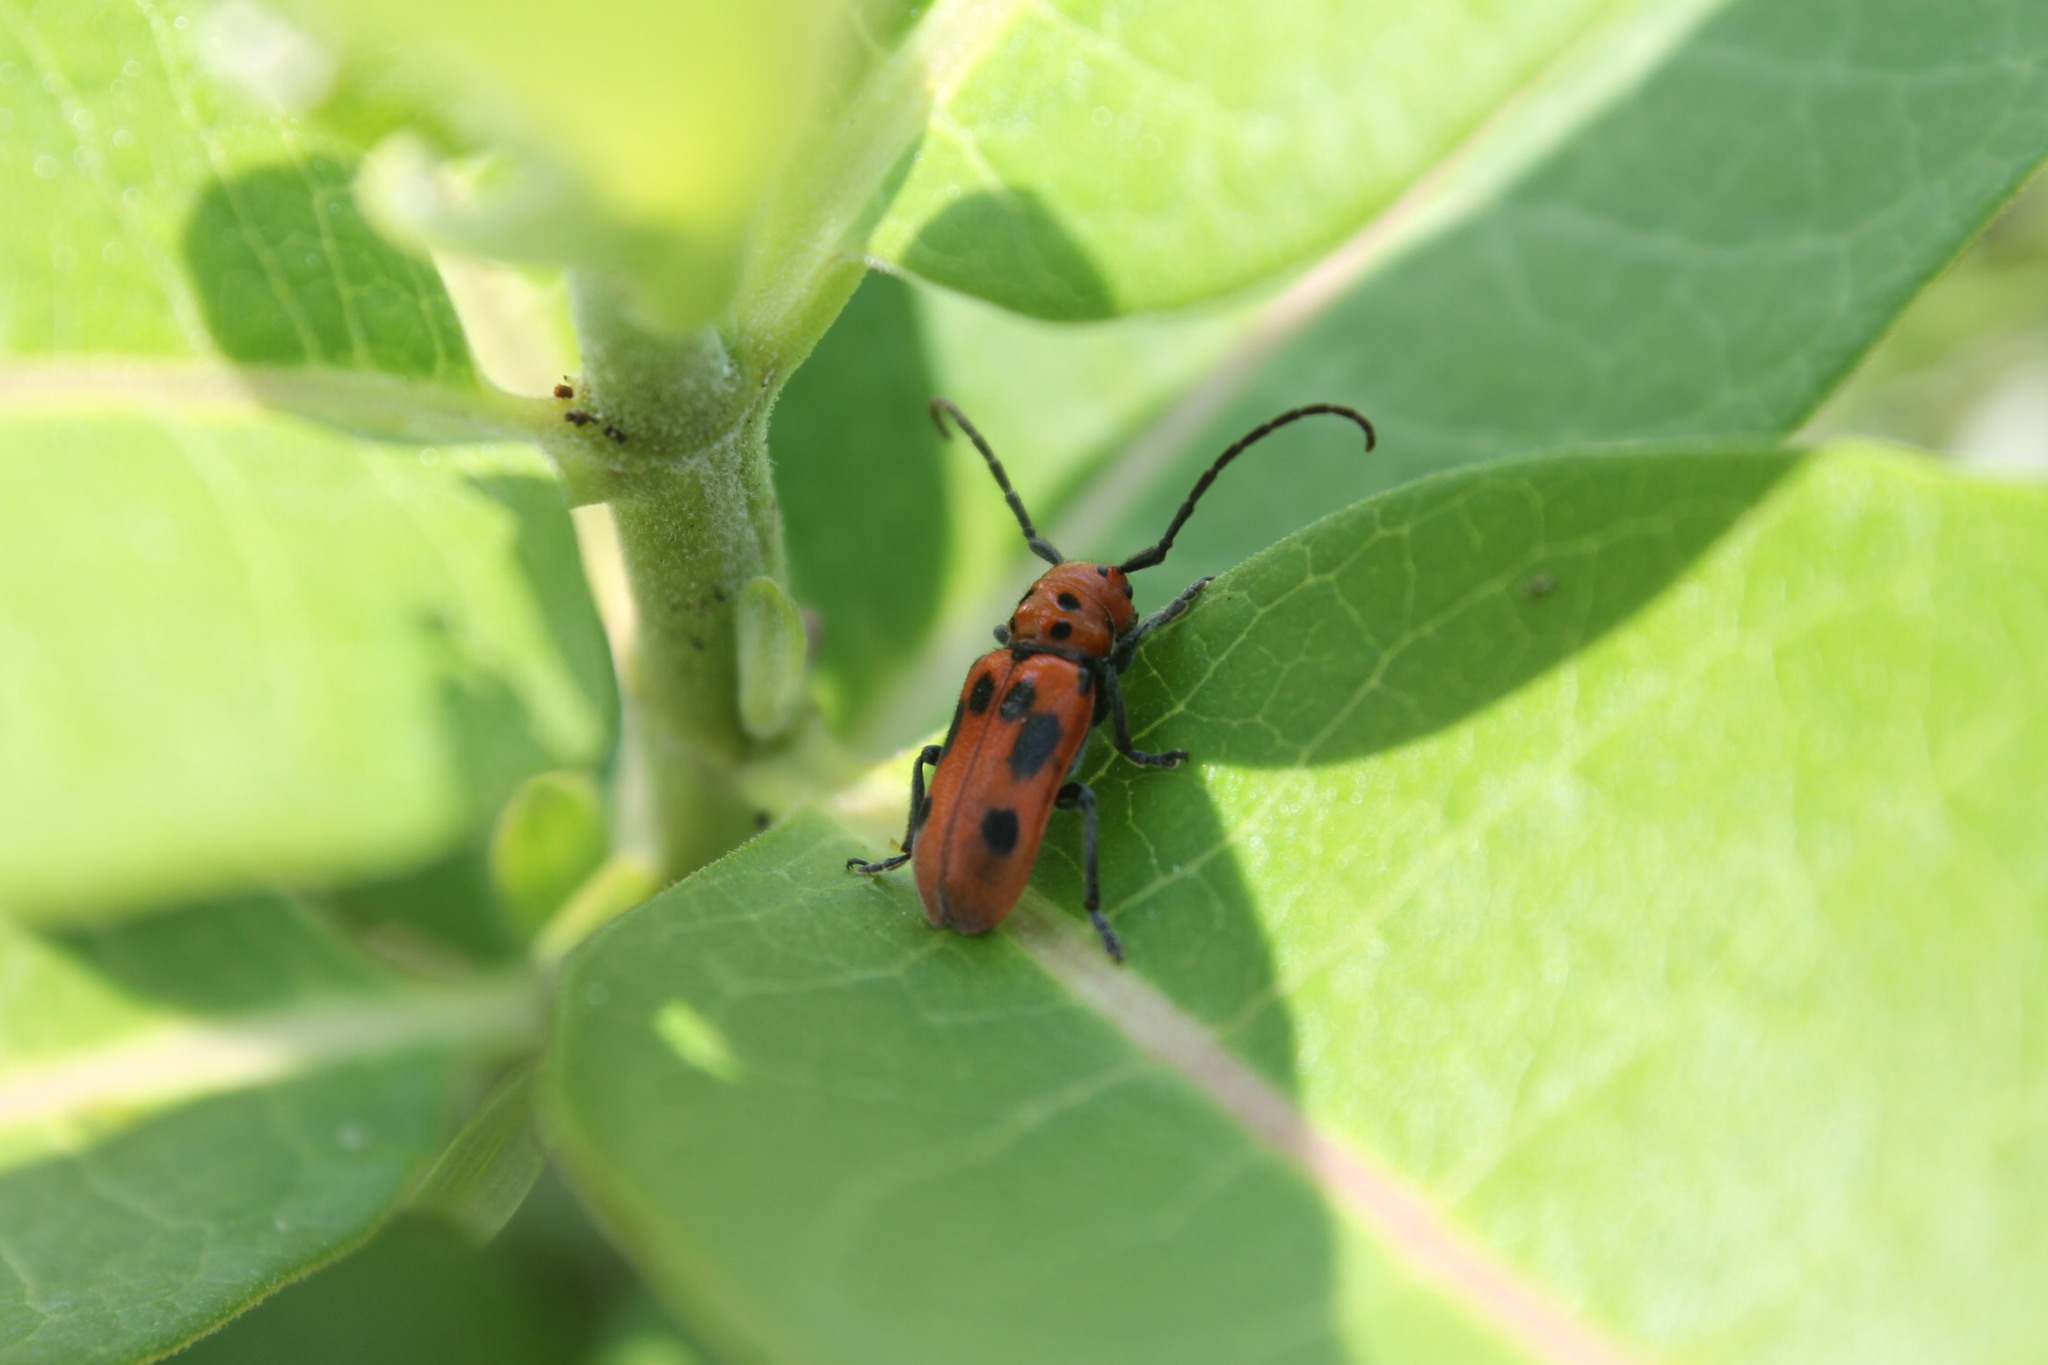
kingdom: Animalia
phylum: Arthropoda
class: Insecta
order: Coleoptera
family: Cerambycidae
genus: Tetraopes
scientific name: Tetraopes tetrophthalmus
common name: Red milkweed beetle
